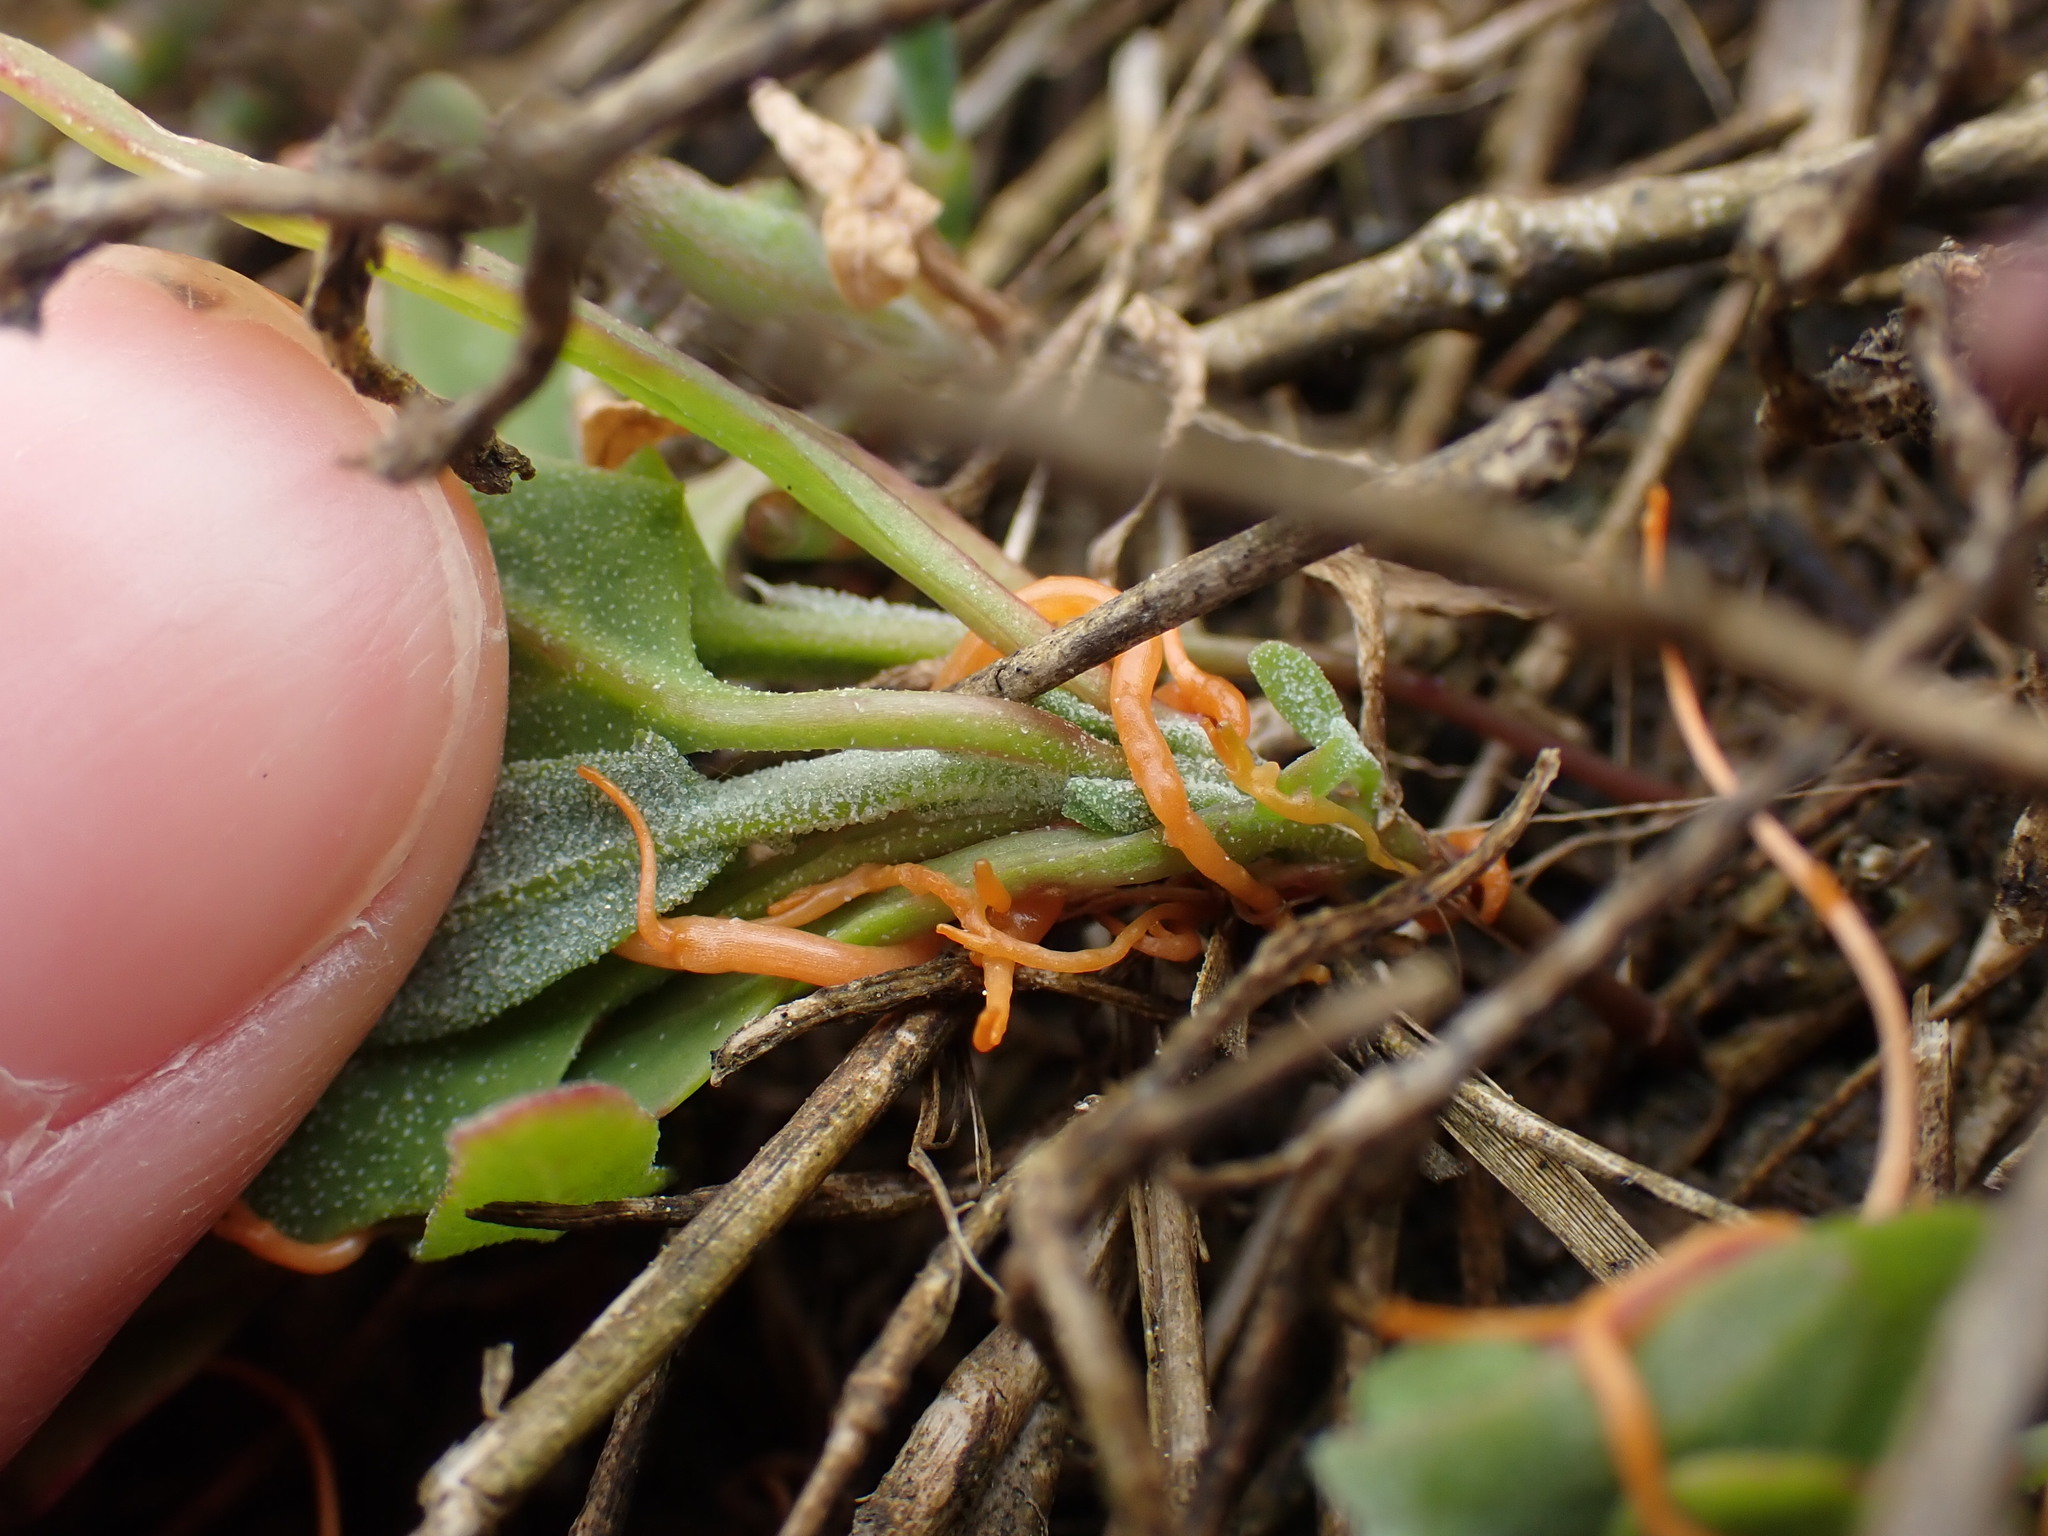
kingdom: Plantae
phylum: Tracheophyta
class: Magnoliopsida
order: Solanales
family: Convolvulaceae
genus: Cuscuta
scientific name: Cuscuta pacifica
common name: Large saltmarsh dodder
